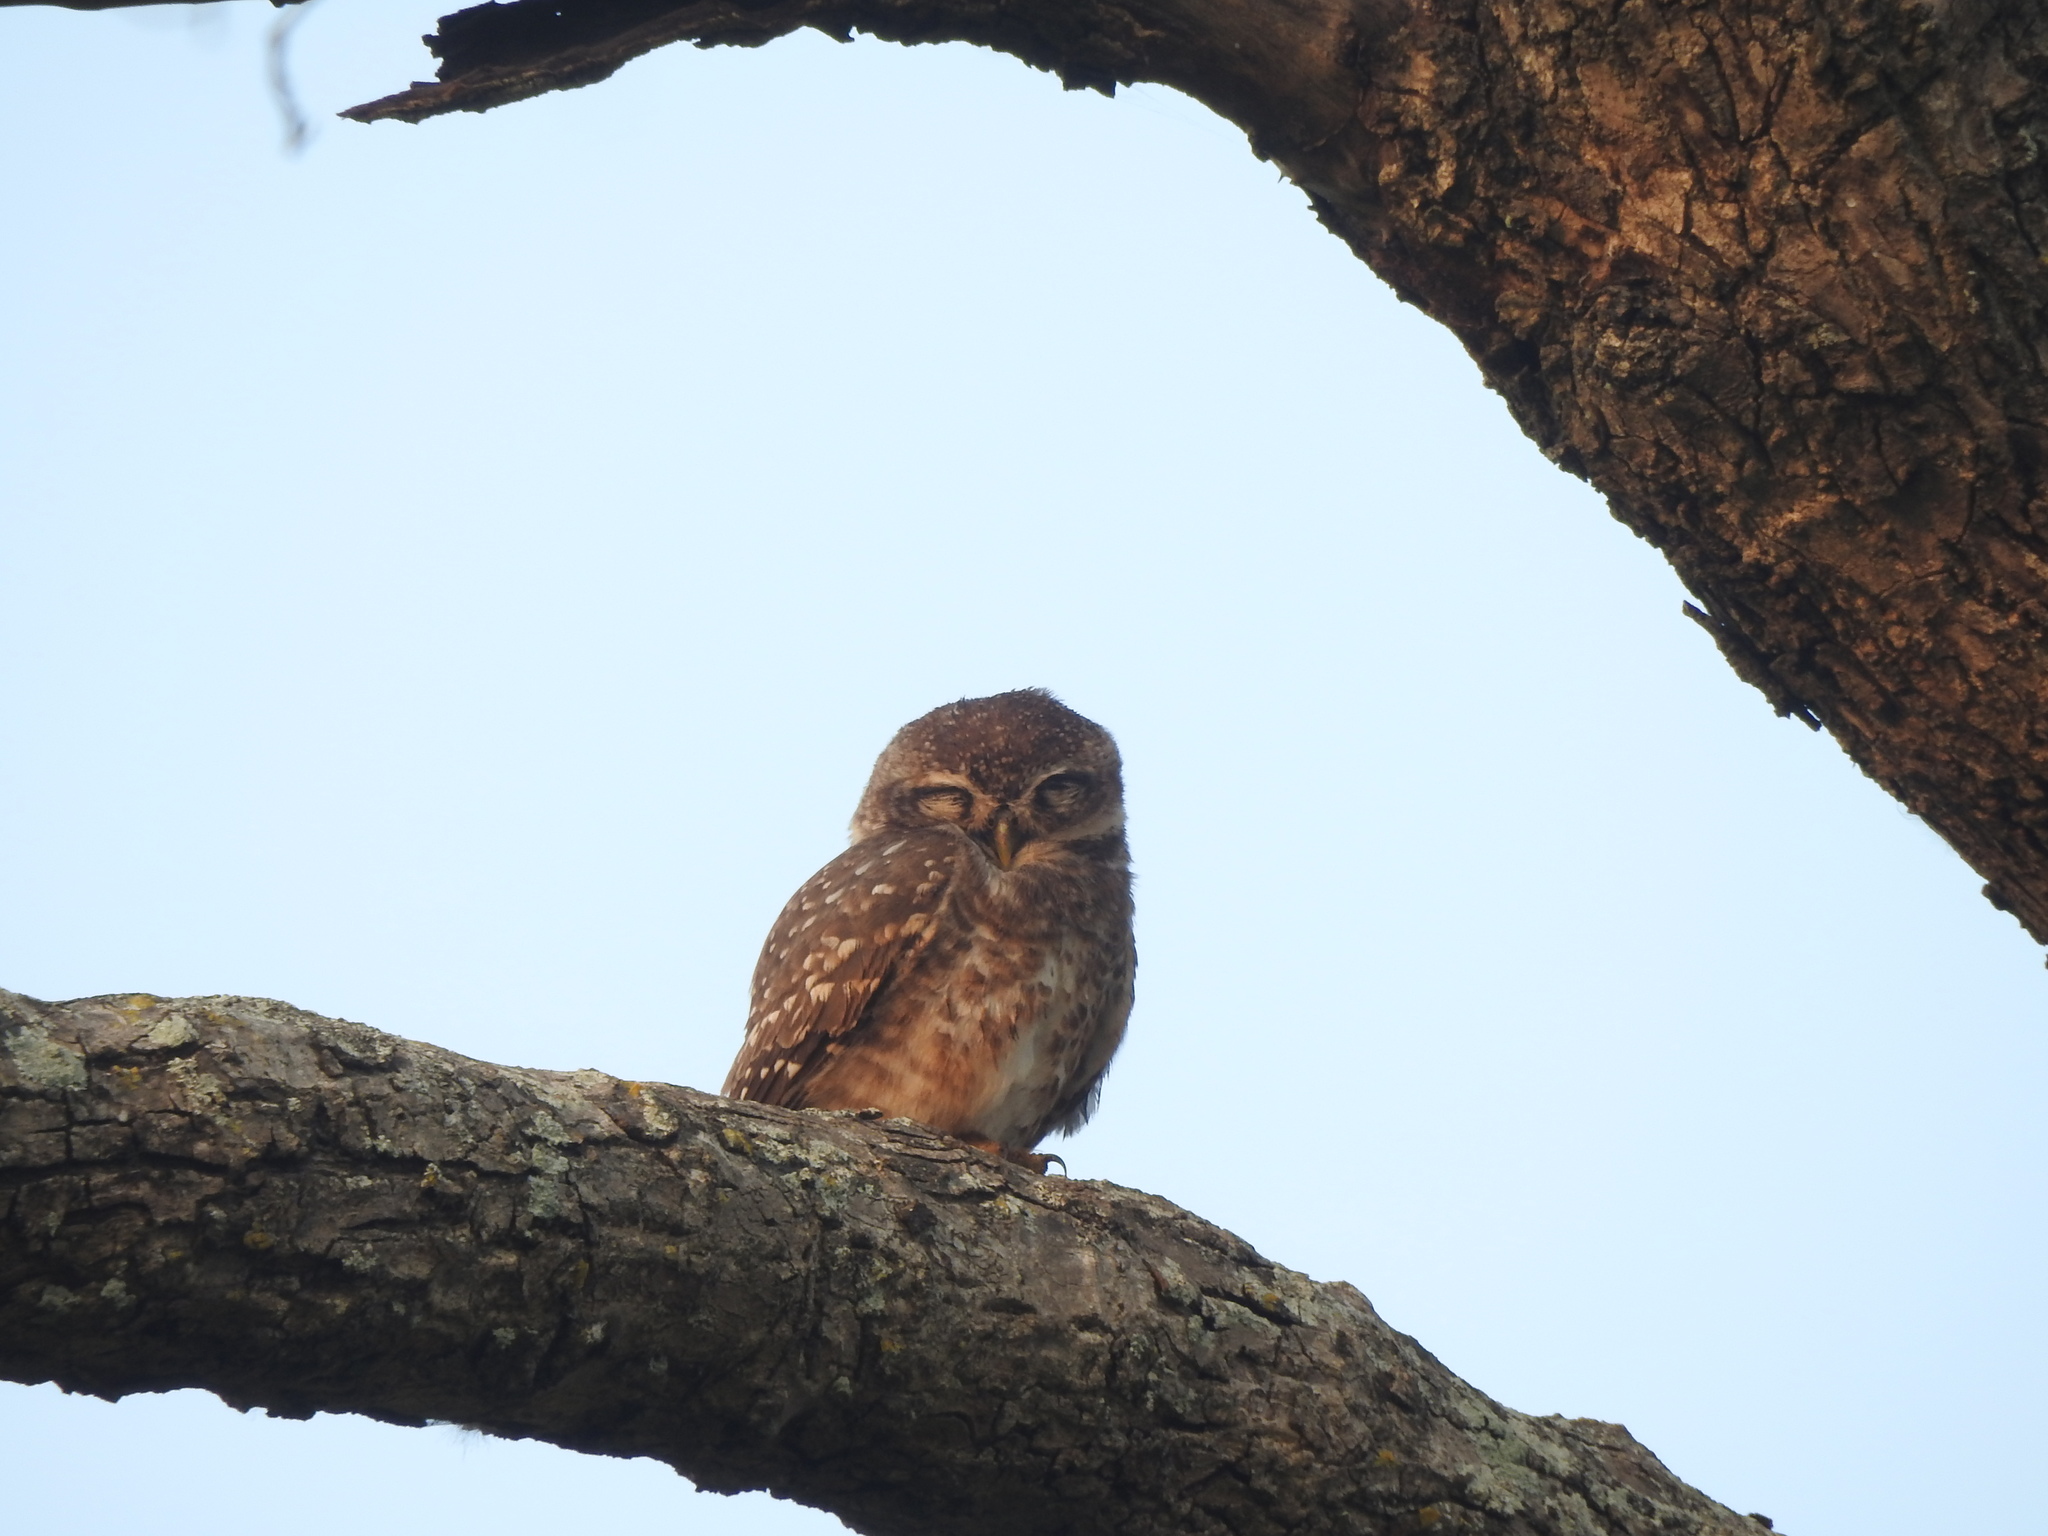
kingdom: Animalia
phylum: Chordata
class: Aves
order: Strigiformes
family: Strigidae
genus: Athene
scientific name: Athene brama
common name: Spotted owlet
